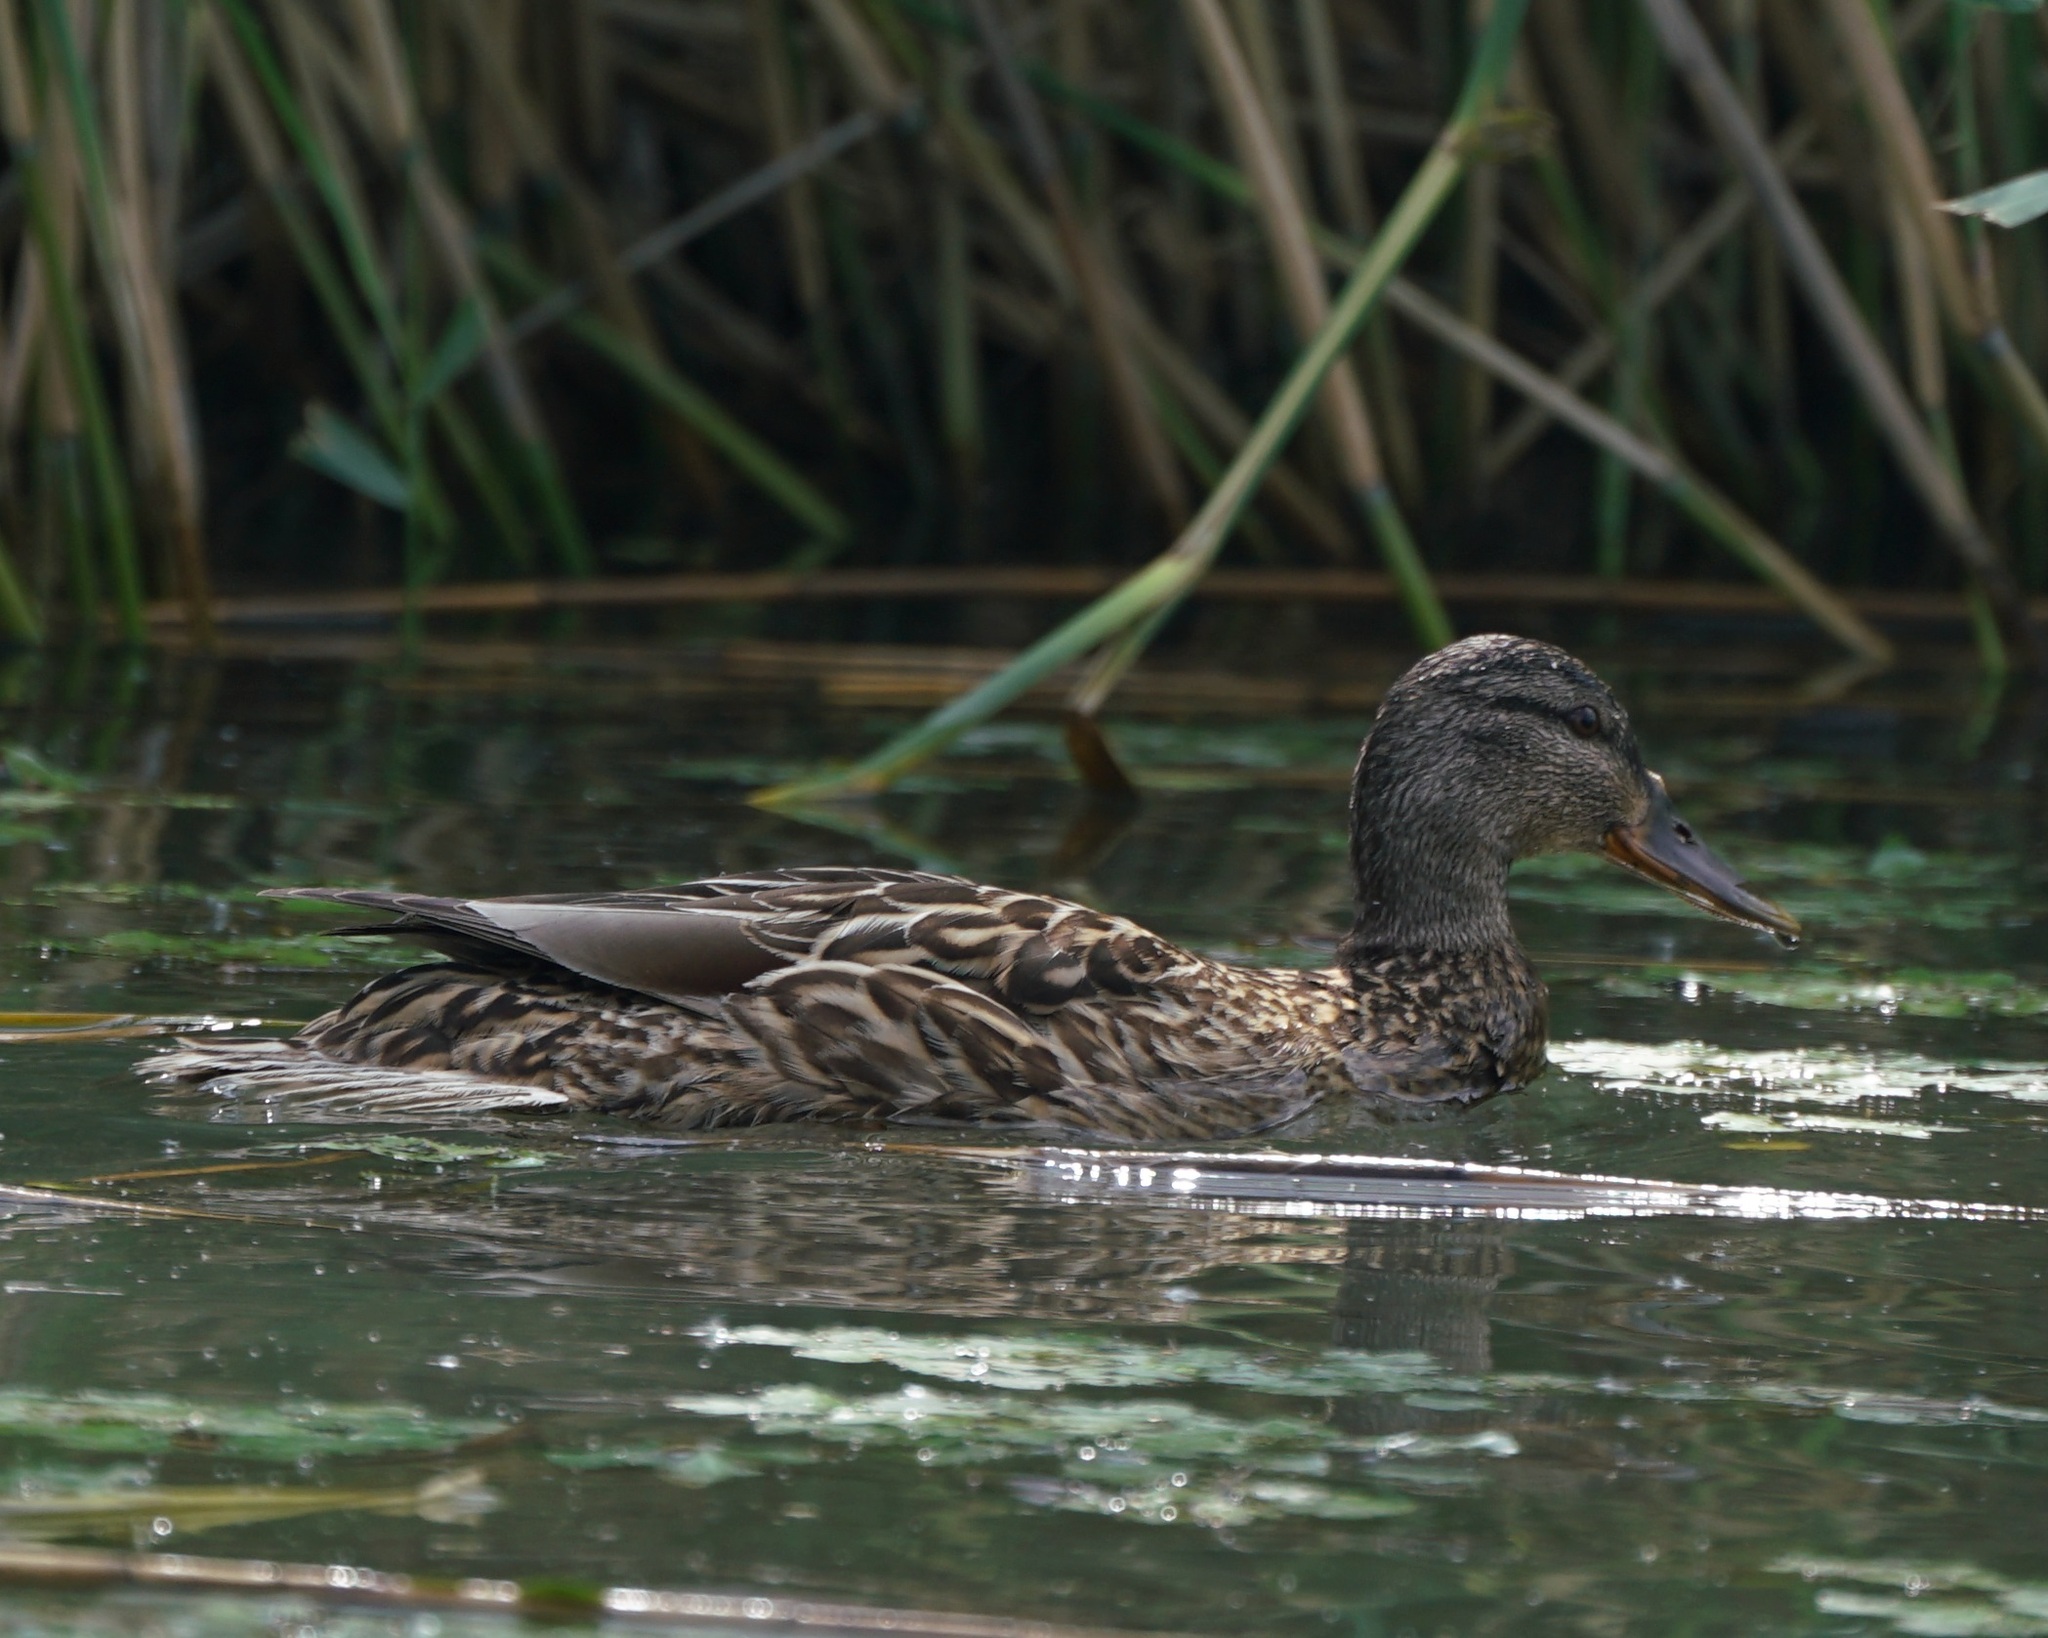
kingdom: Animalia
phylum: Chordata
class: Aves
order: Anseriformes
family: Anatidae
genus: Anas
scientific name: Anas platyrhynchos
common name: Mallard
